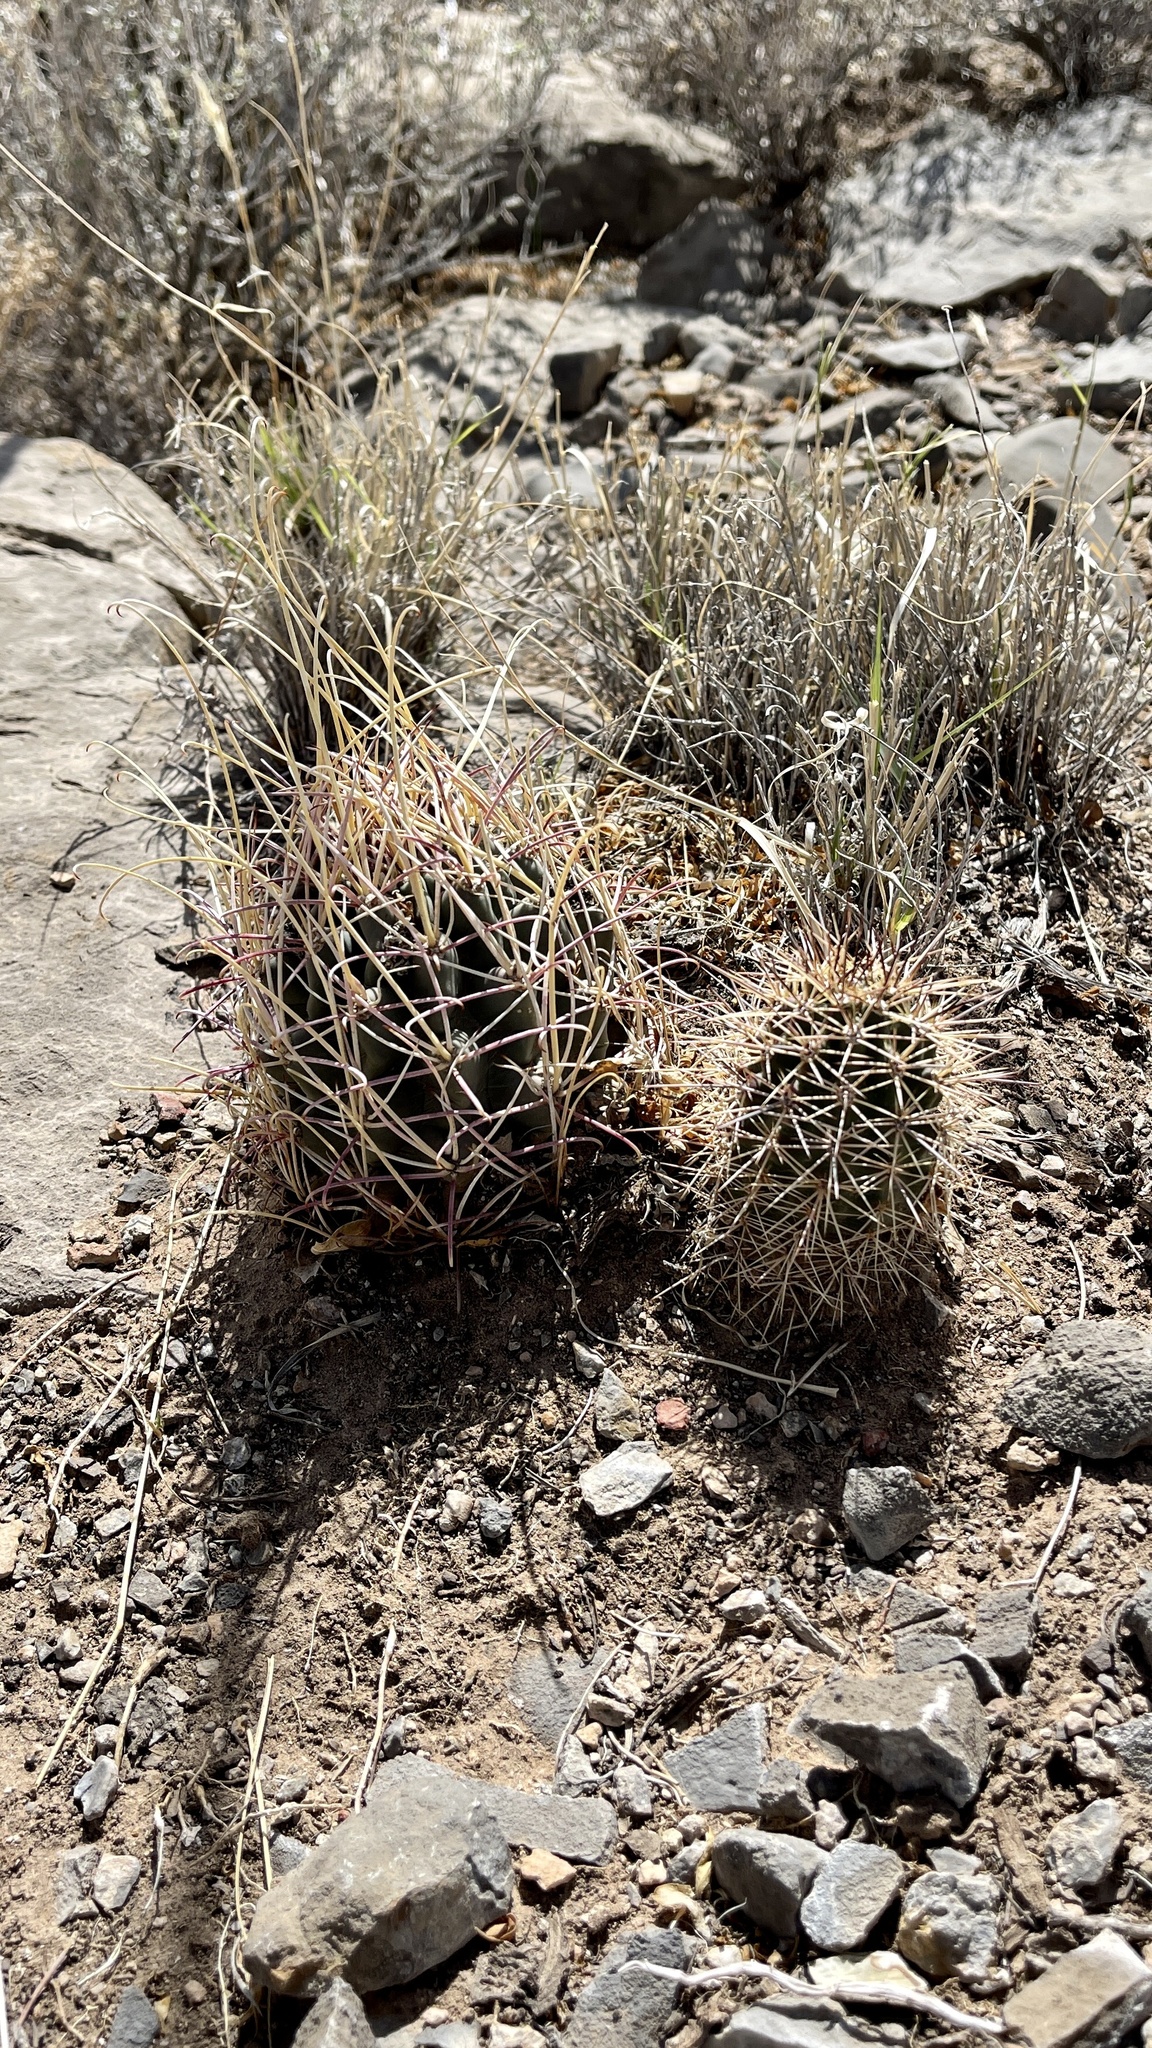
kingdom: Plantae
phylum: Tracheophyta
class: Magnoliopsida
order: Caryophyllales
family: Cactaceae
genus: Echinocereus
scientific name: Echinocereus coccineus
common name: Scarlet hedgehog cactus
